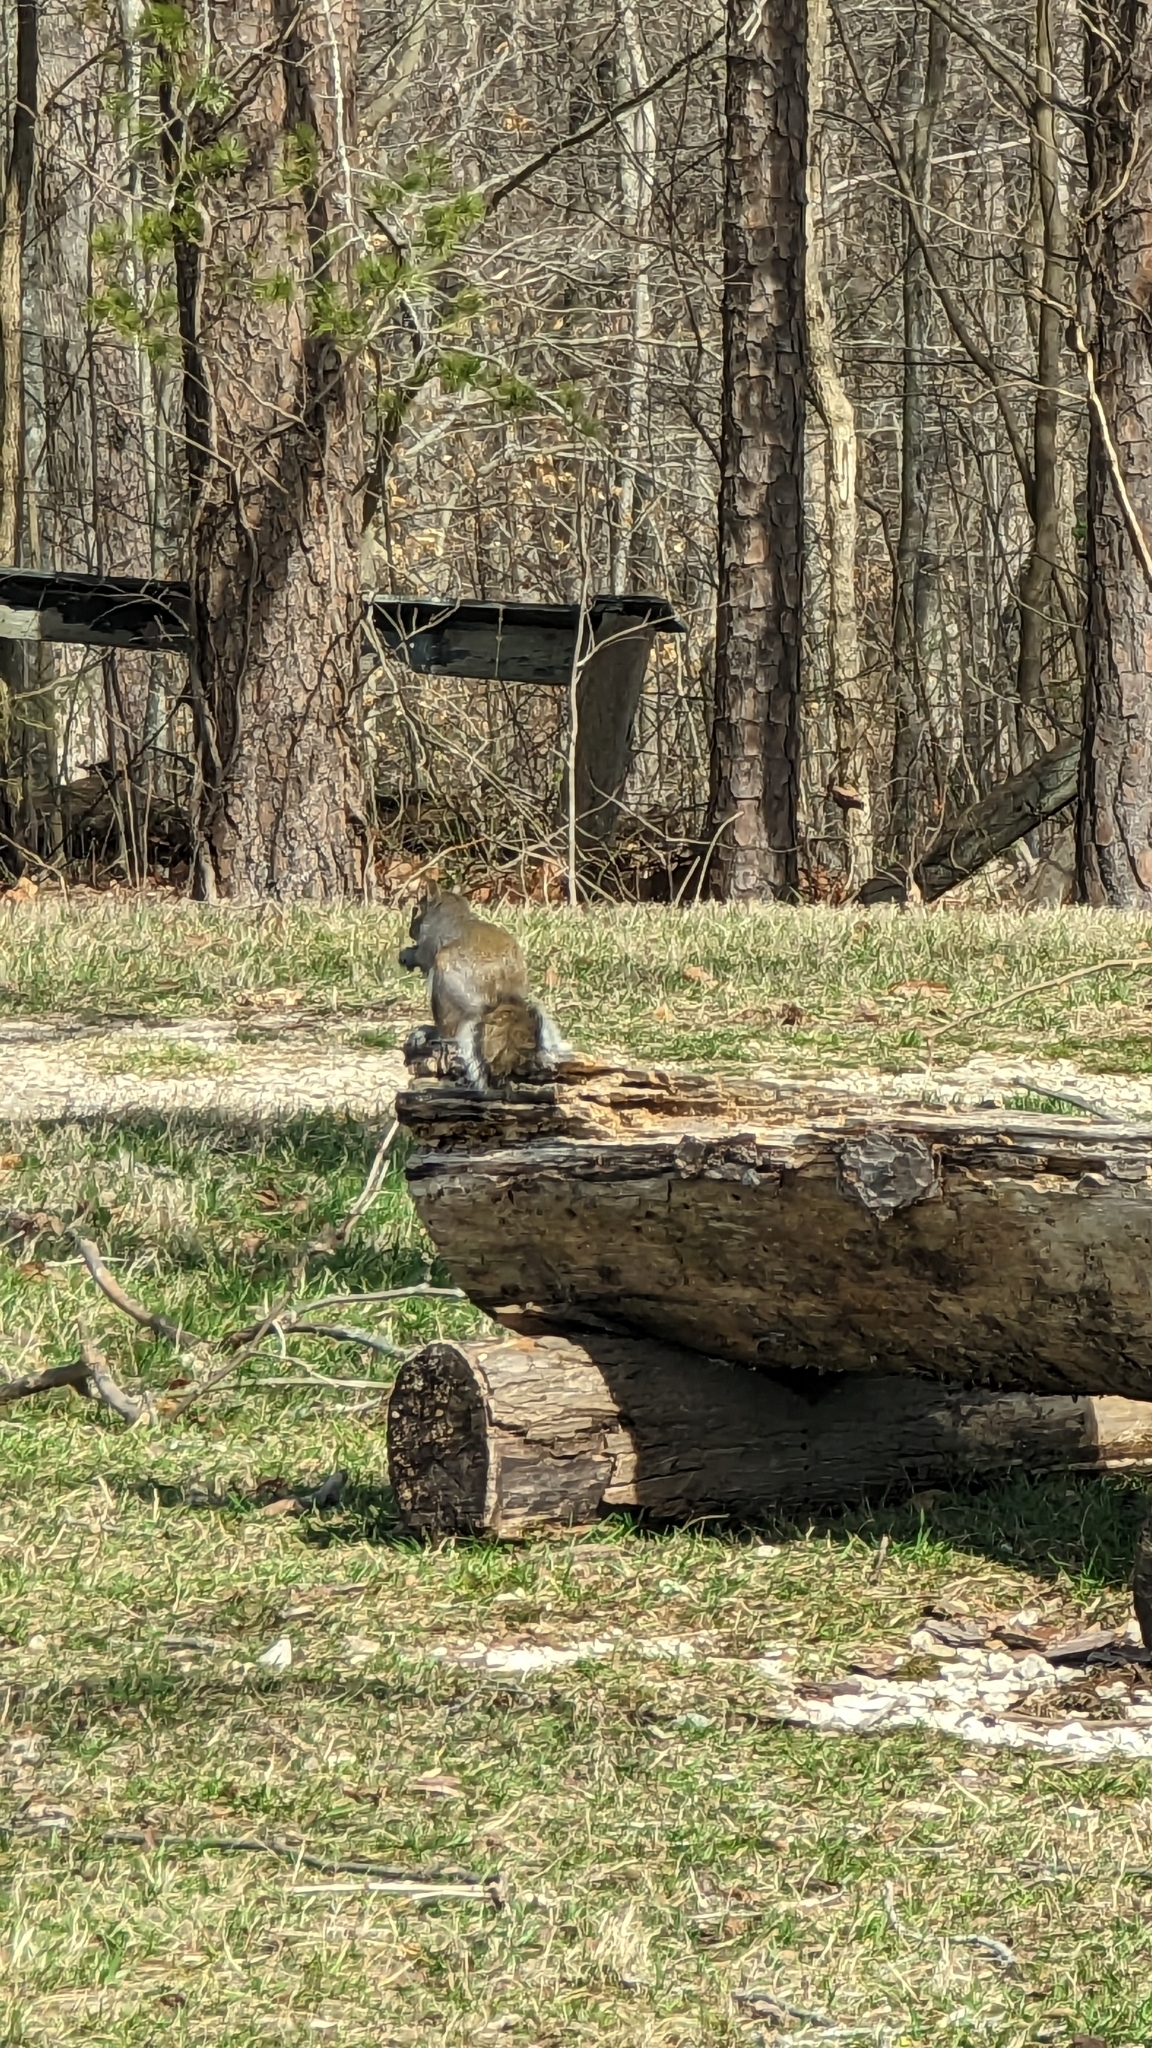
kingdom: Animalia
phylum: Chordata
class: Mammalia
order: Rodentia
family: Sciuridae
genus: Sciurus
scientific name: Sciurus carolinensis
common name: Eastern gray squirrel
